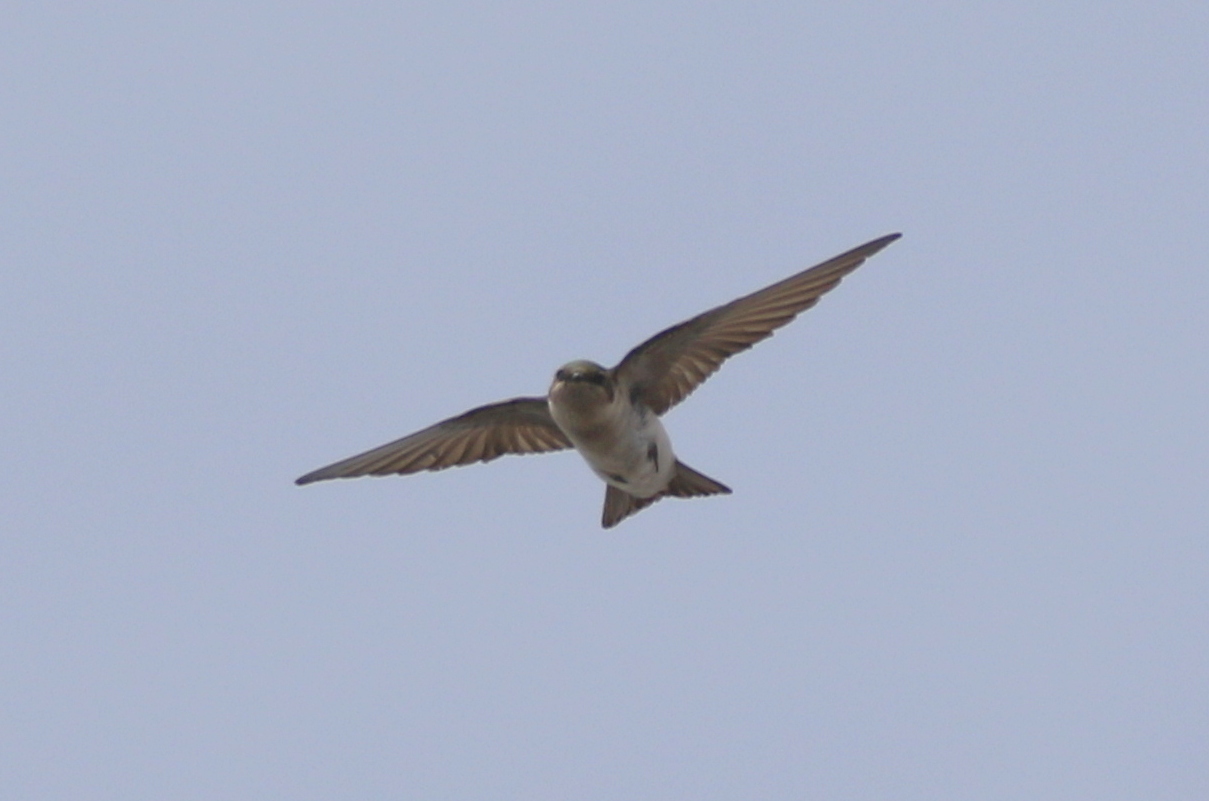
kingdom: Animalia
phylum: Chordata
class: Aves
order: Passeriformes
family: Hirundinidae
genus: Tachycineta
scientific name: Tachycineta thalassina
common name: Violet-green swallow
